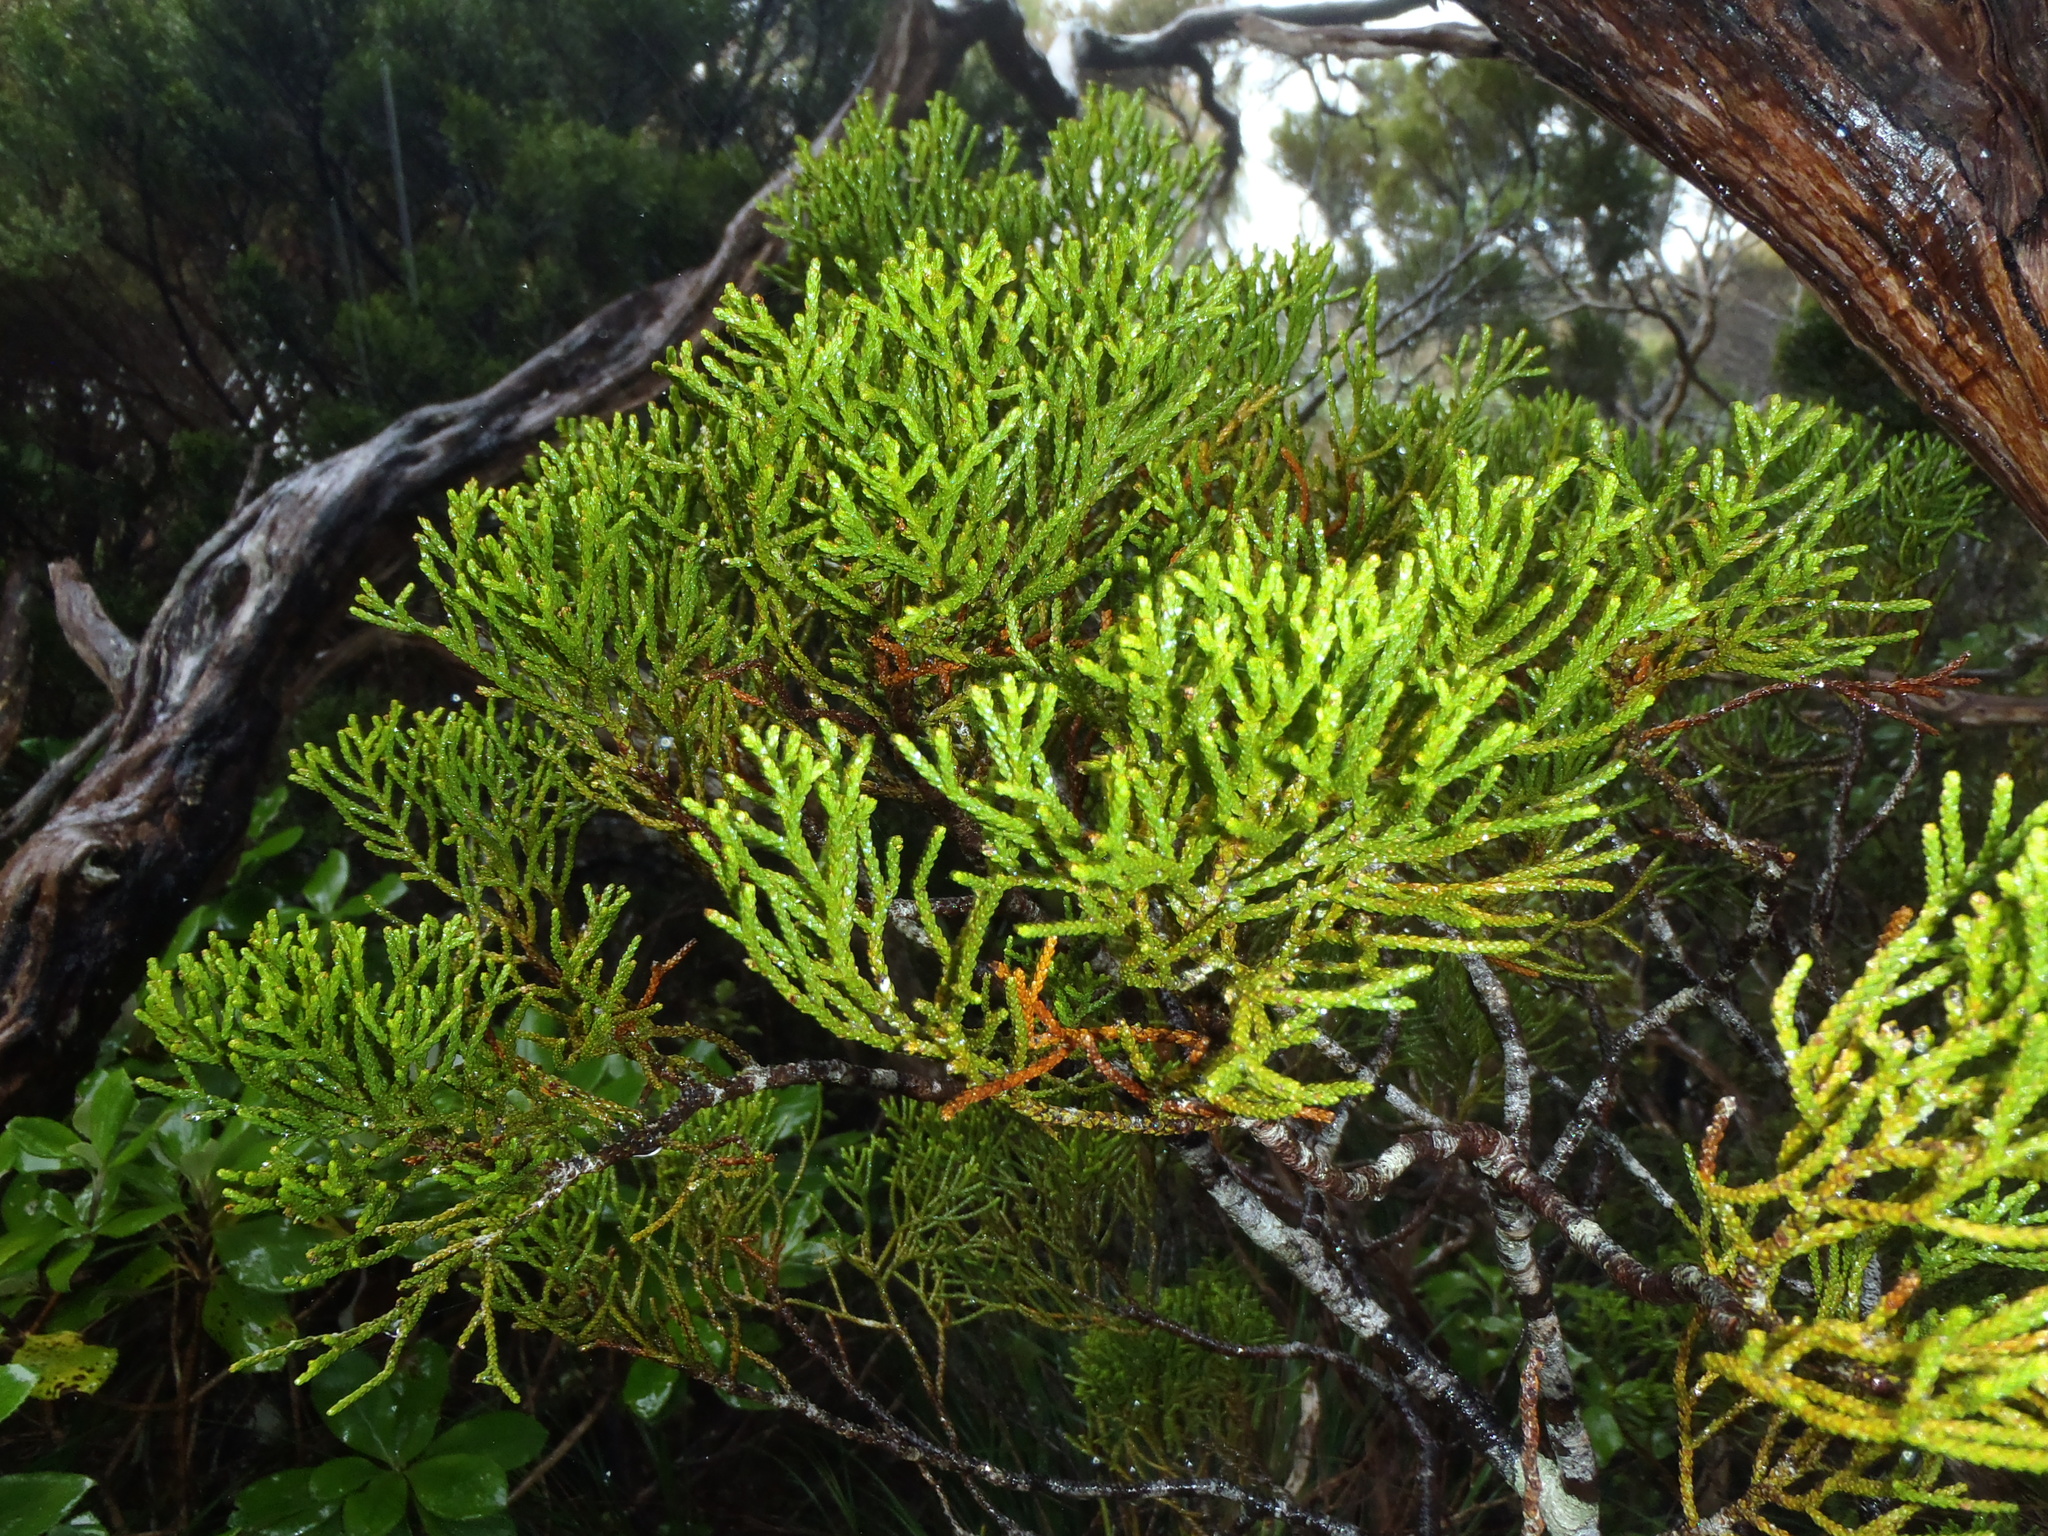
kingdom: Plantae
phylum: Tracheophyta
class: Pinopsida
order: Pinales
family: Podocarpaceae
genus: Halocarpus
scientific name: Halocarpus biformis
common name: Alpine tarwood
